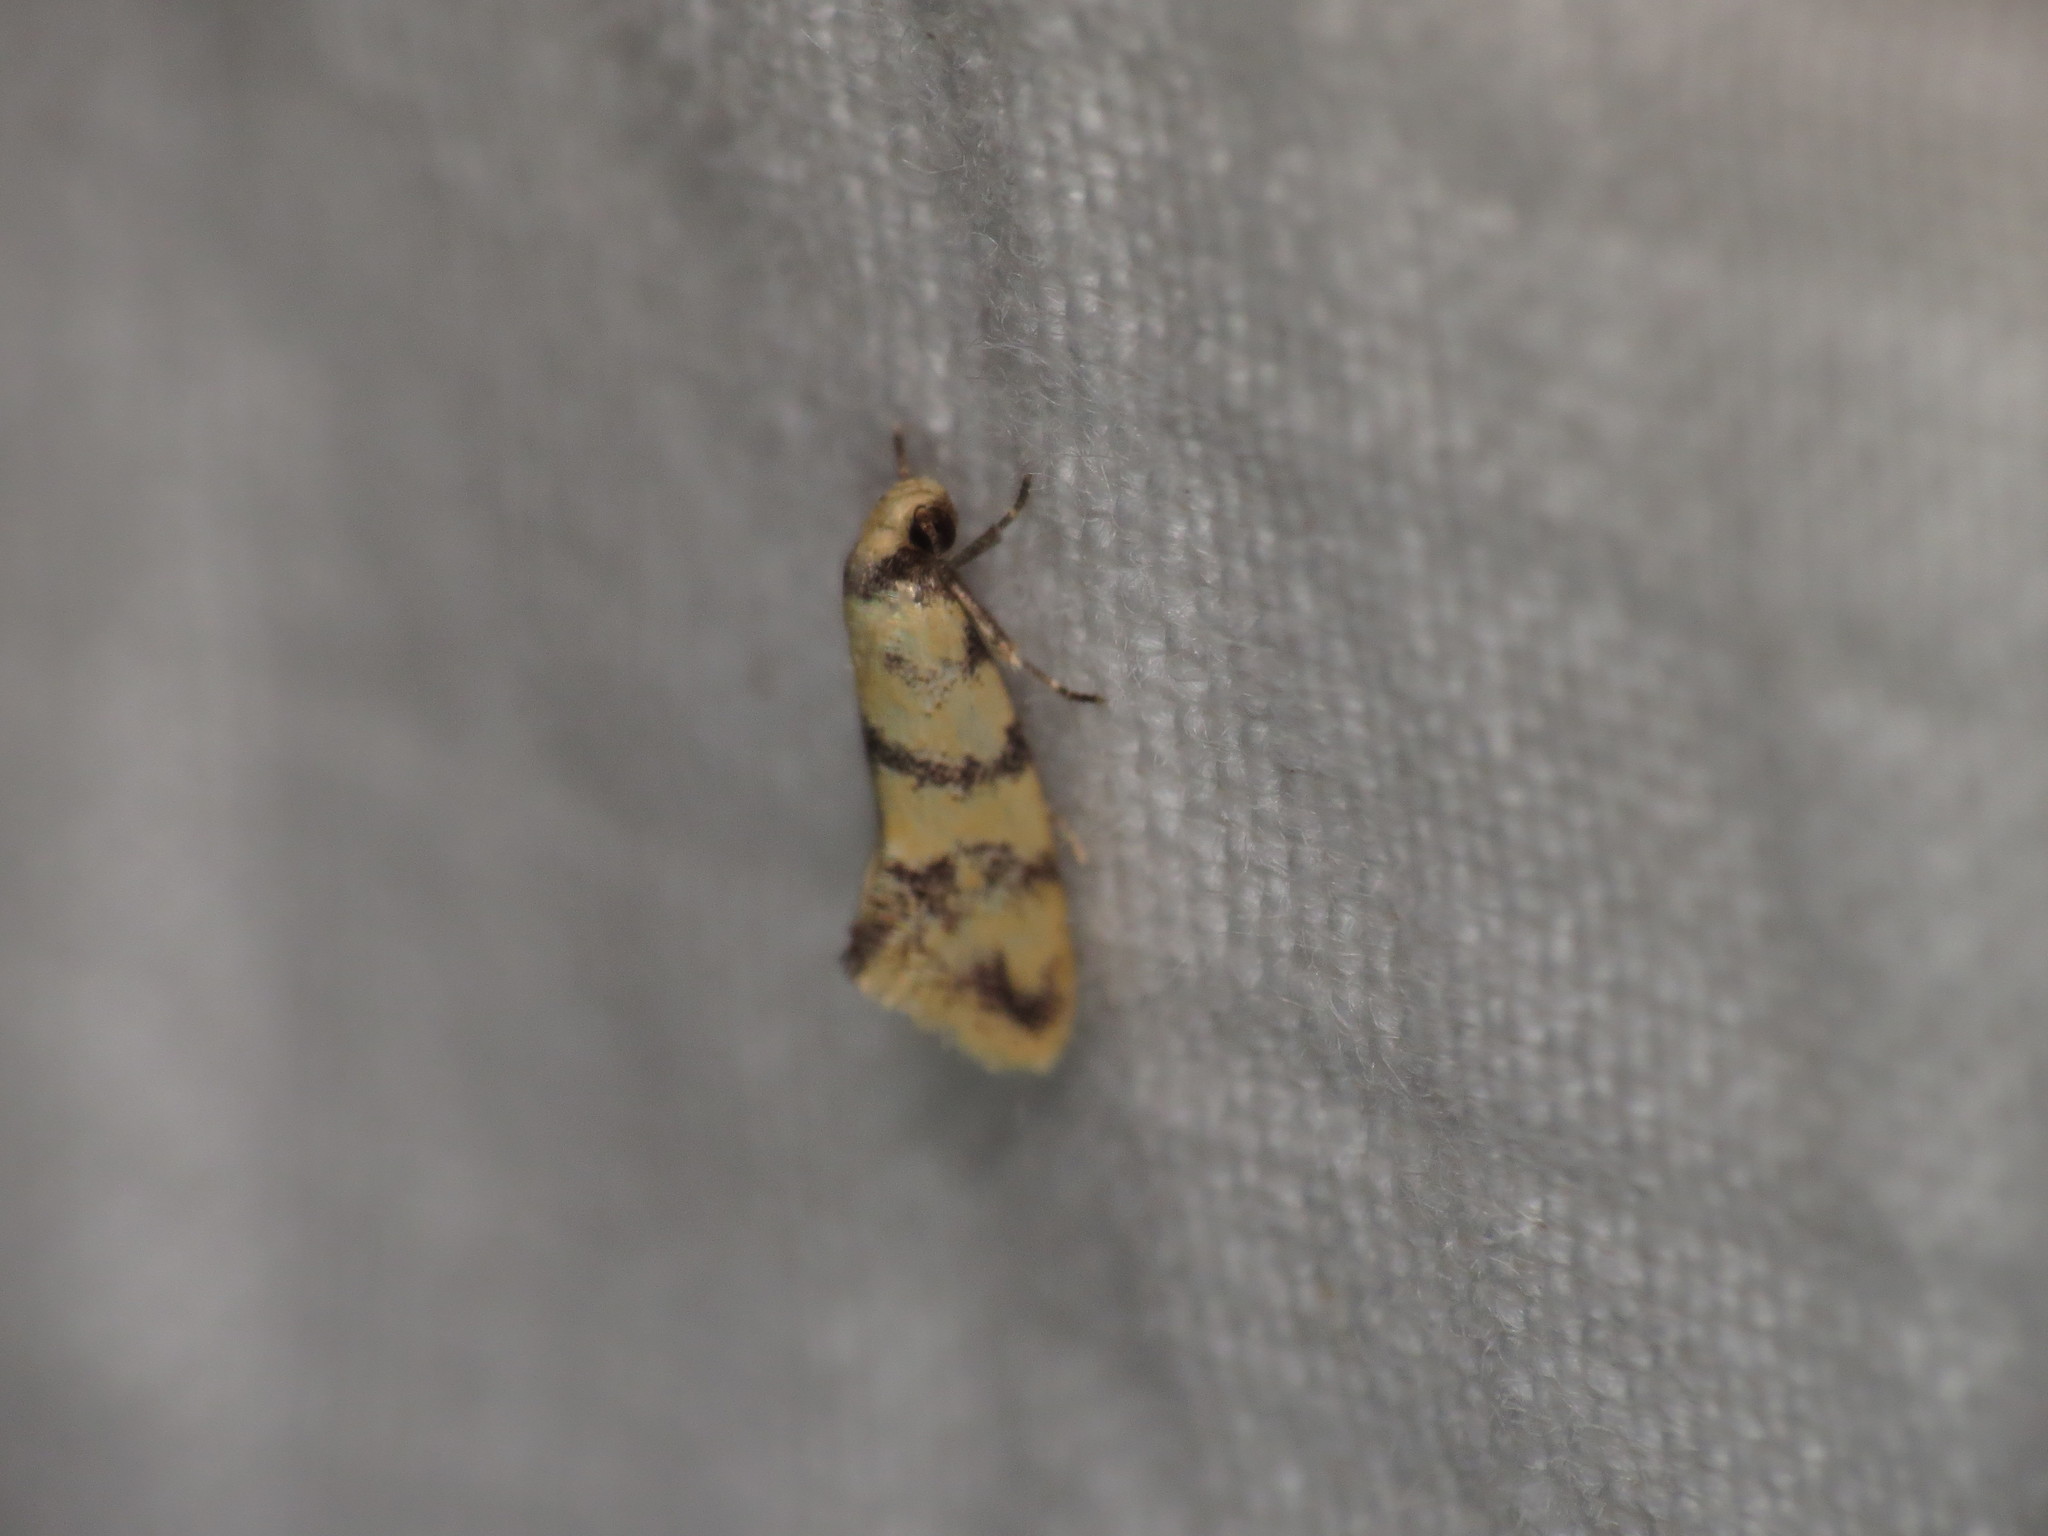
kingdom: Animalia
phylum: Arthropoda
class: Insecta
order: Lepidoptera
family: Oecophoridae
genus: Psaroxantha
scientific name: Psaroxantha calligenes
